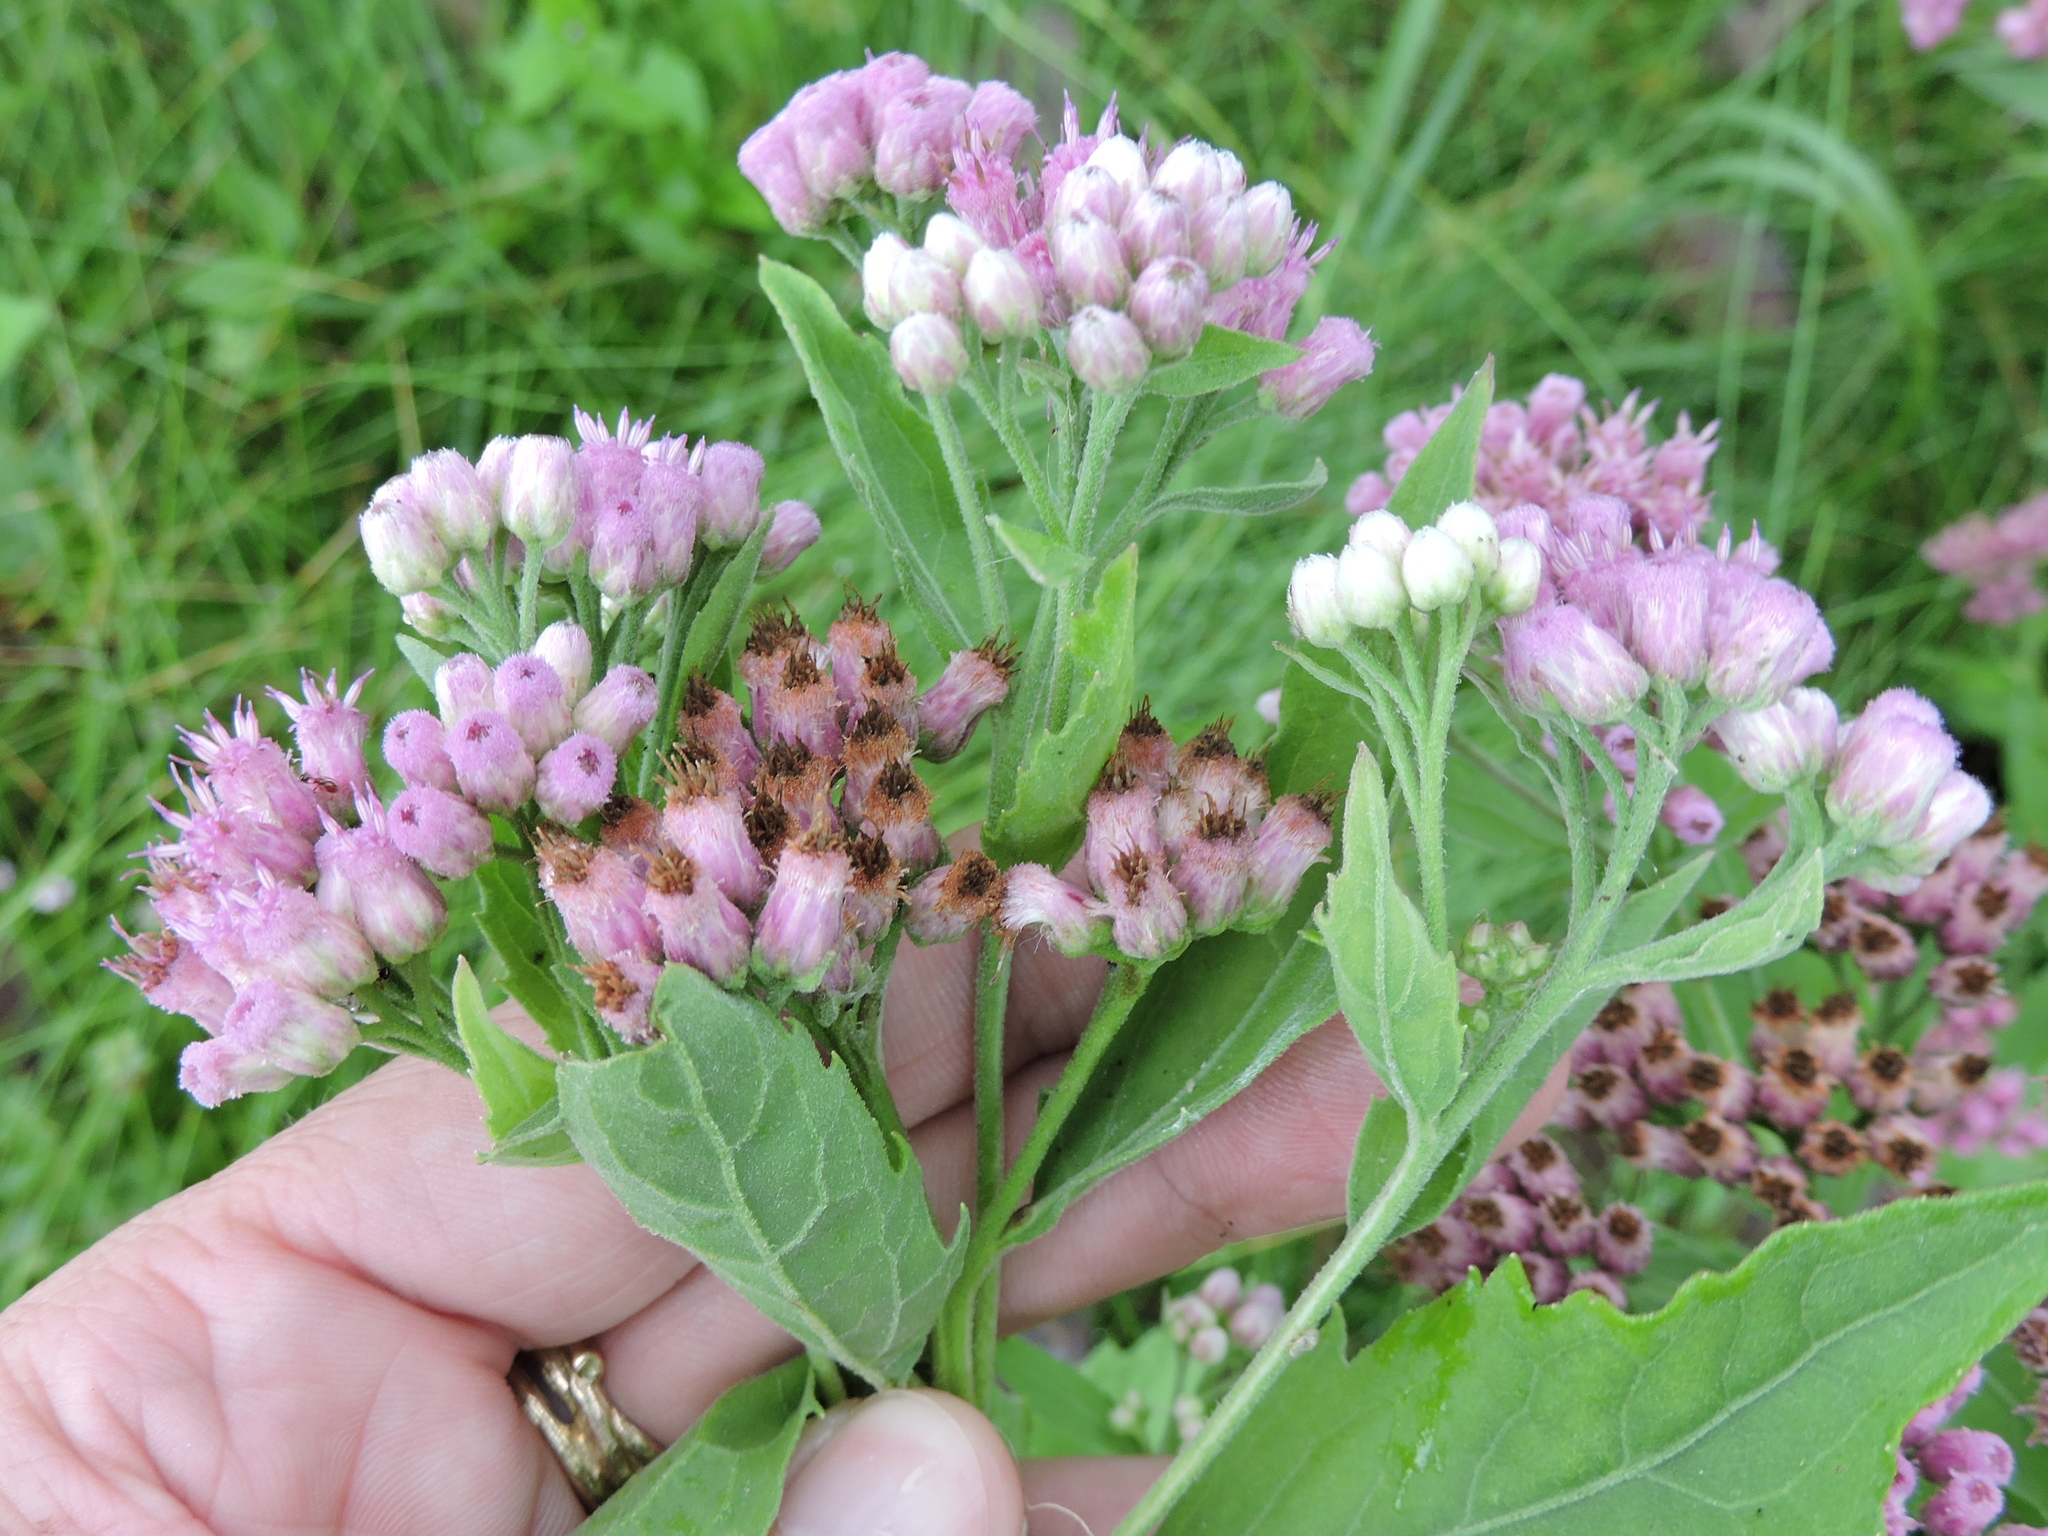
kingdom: Plantae
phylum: Tracheophyta
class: Magnoliopsida
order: Asterales
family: Asteraceae
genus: Pluchea
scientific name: Pluchea odorata
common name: Saltmarsh fleabane
